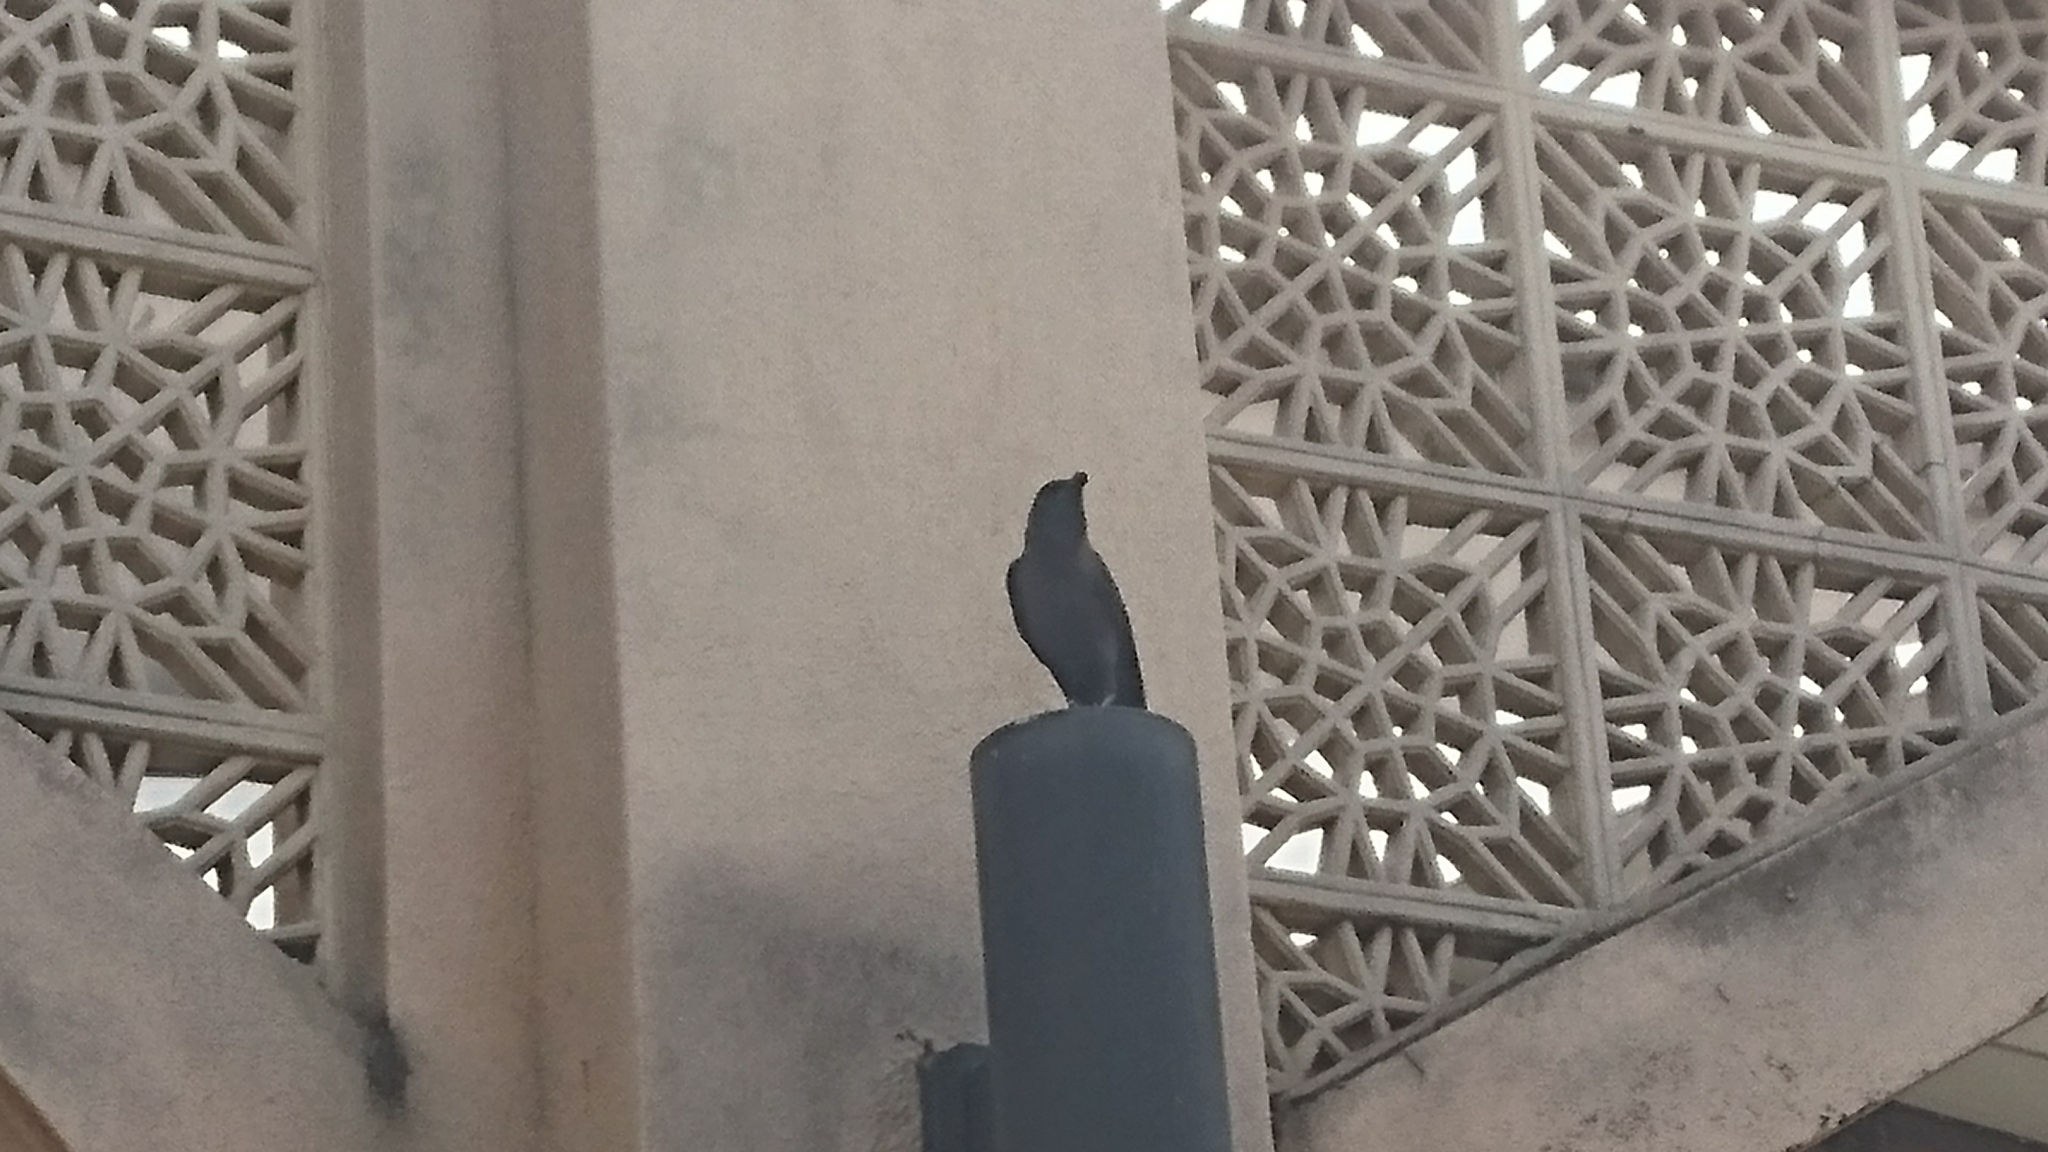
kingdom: Animalia
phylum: Chordata
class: Aves
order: Passeriformes
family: Corvidae
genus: Corvus
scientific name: Corvus splendens
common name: House crow
